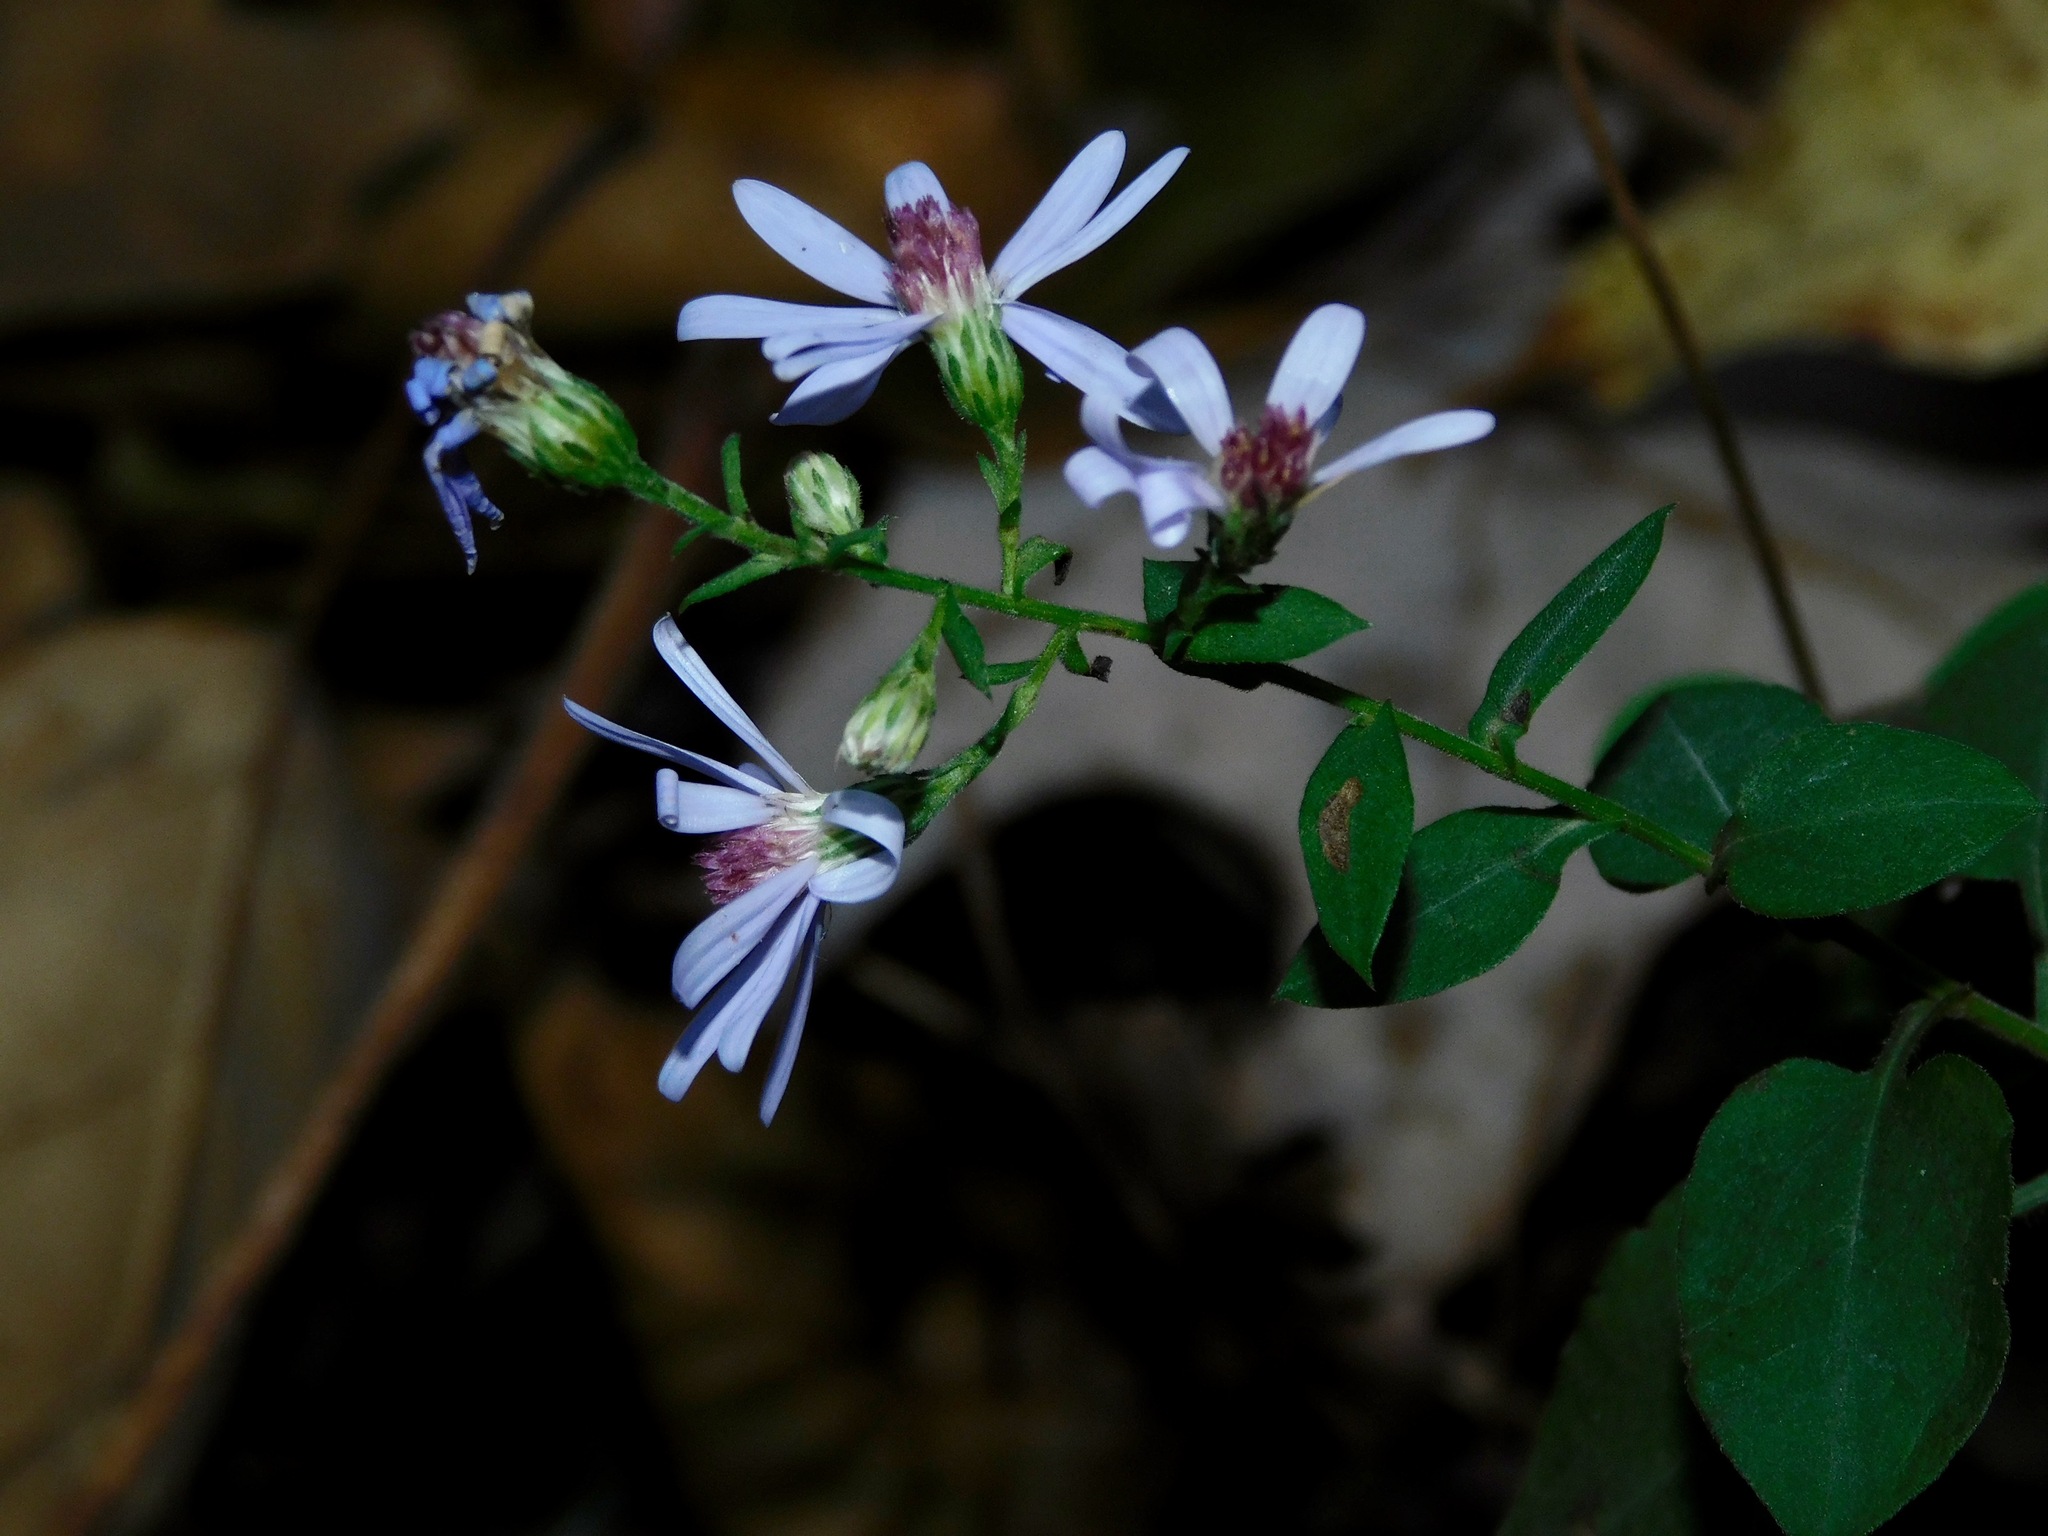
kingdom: Plantae
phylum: Tracheophyta
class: Magnoliopsida
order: Asterales
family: Asteraceae
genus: Symphyotrichum
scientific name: Symphyotrichum undulatum
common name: Clasping heart-leaf aster
